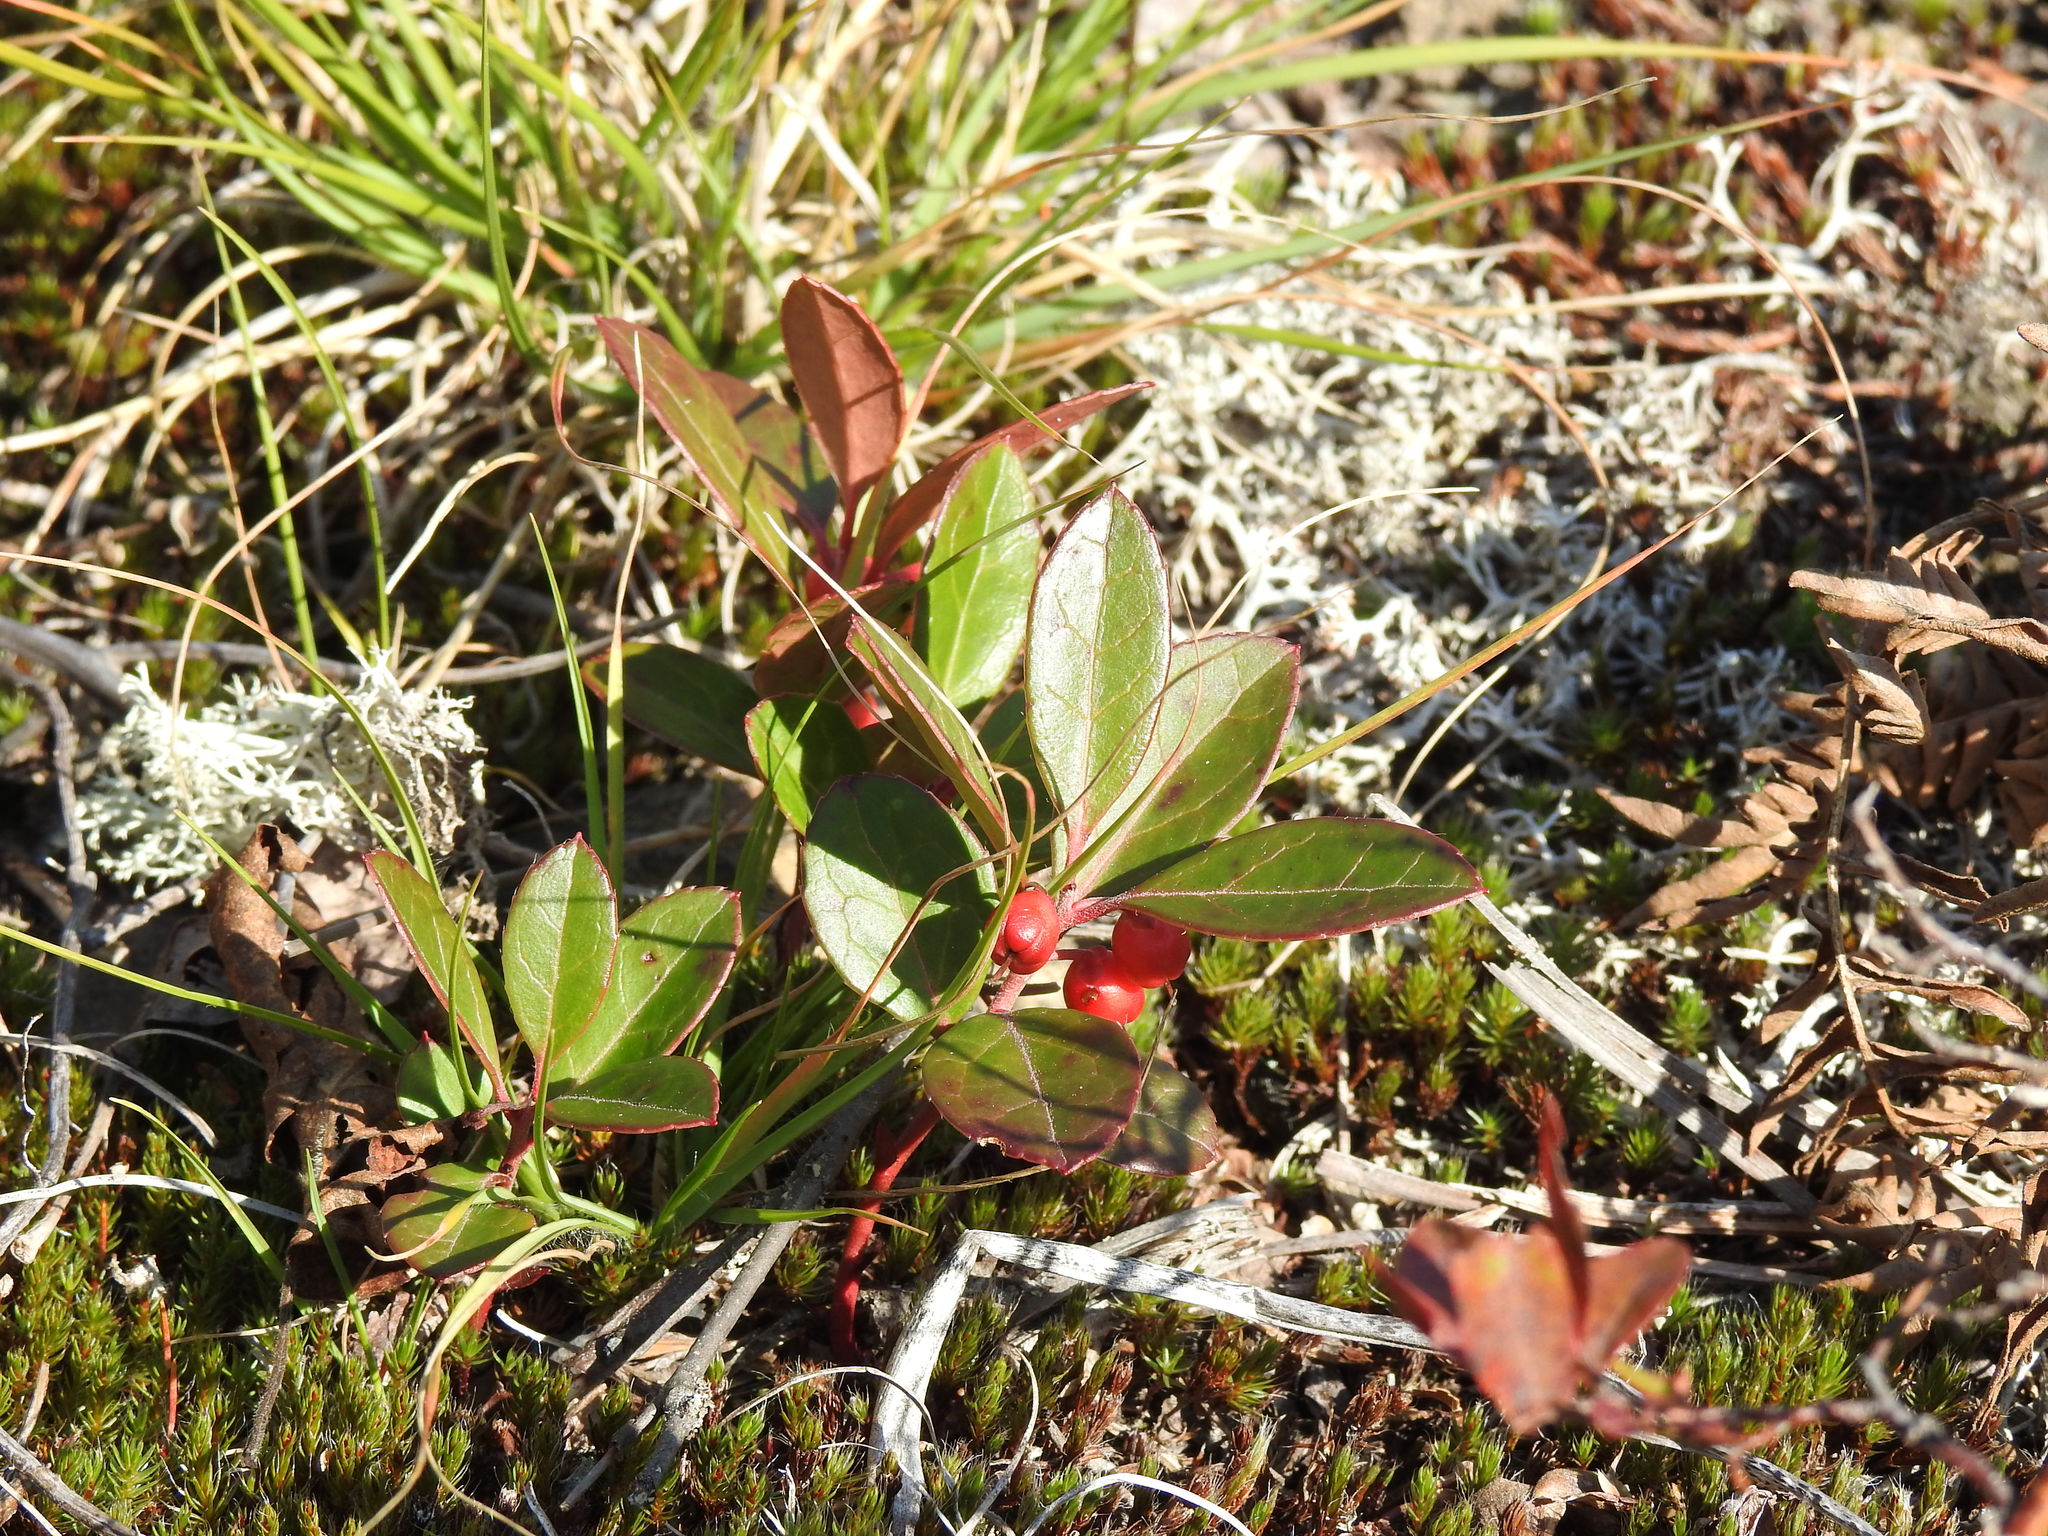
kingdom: Plantae
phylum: Tracheophyta
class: Magnoliopsida
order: Ericales
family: Ericaceae
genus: Gaultheria
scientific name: Gaultheria procumbens
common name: Checkerberry
